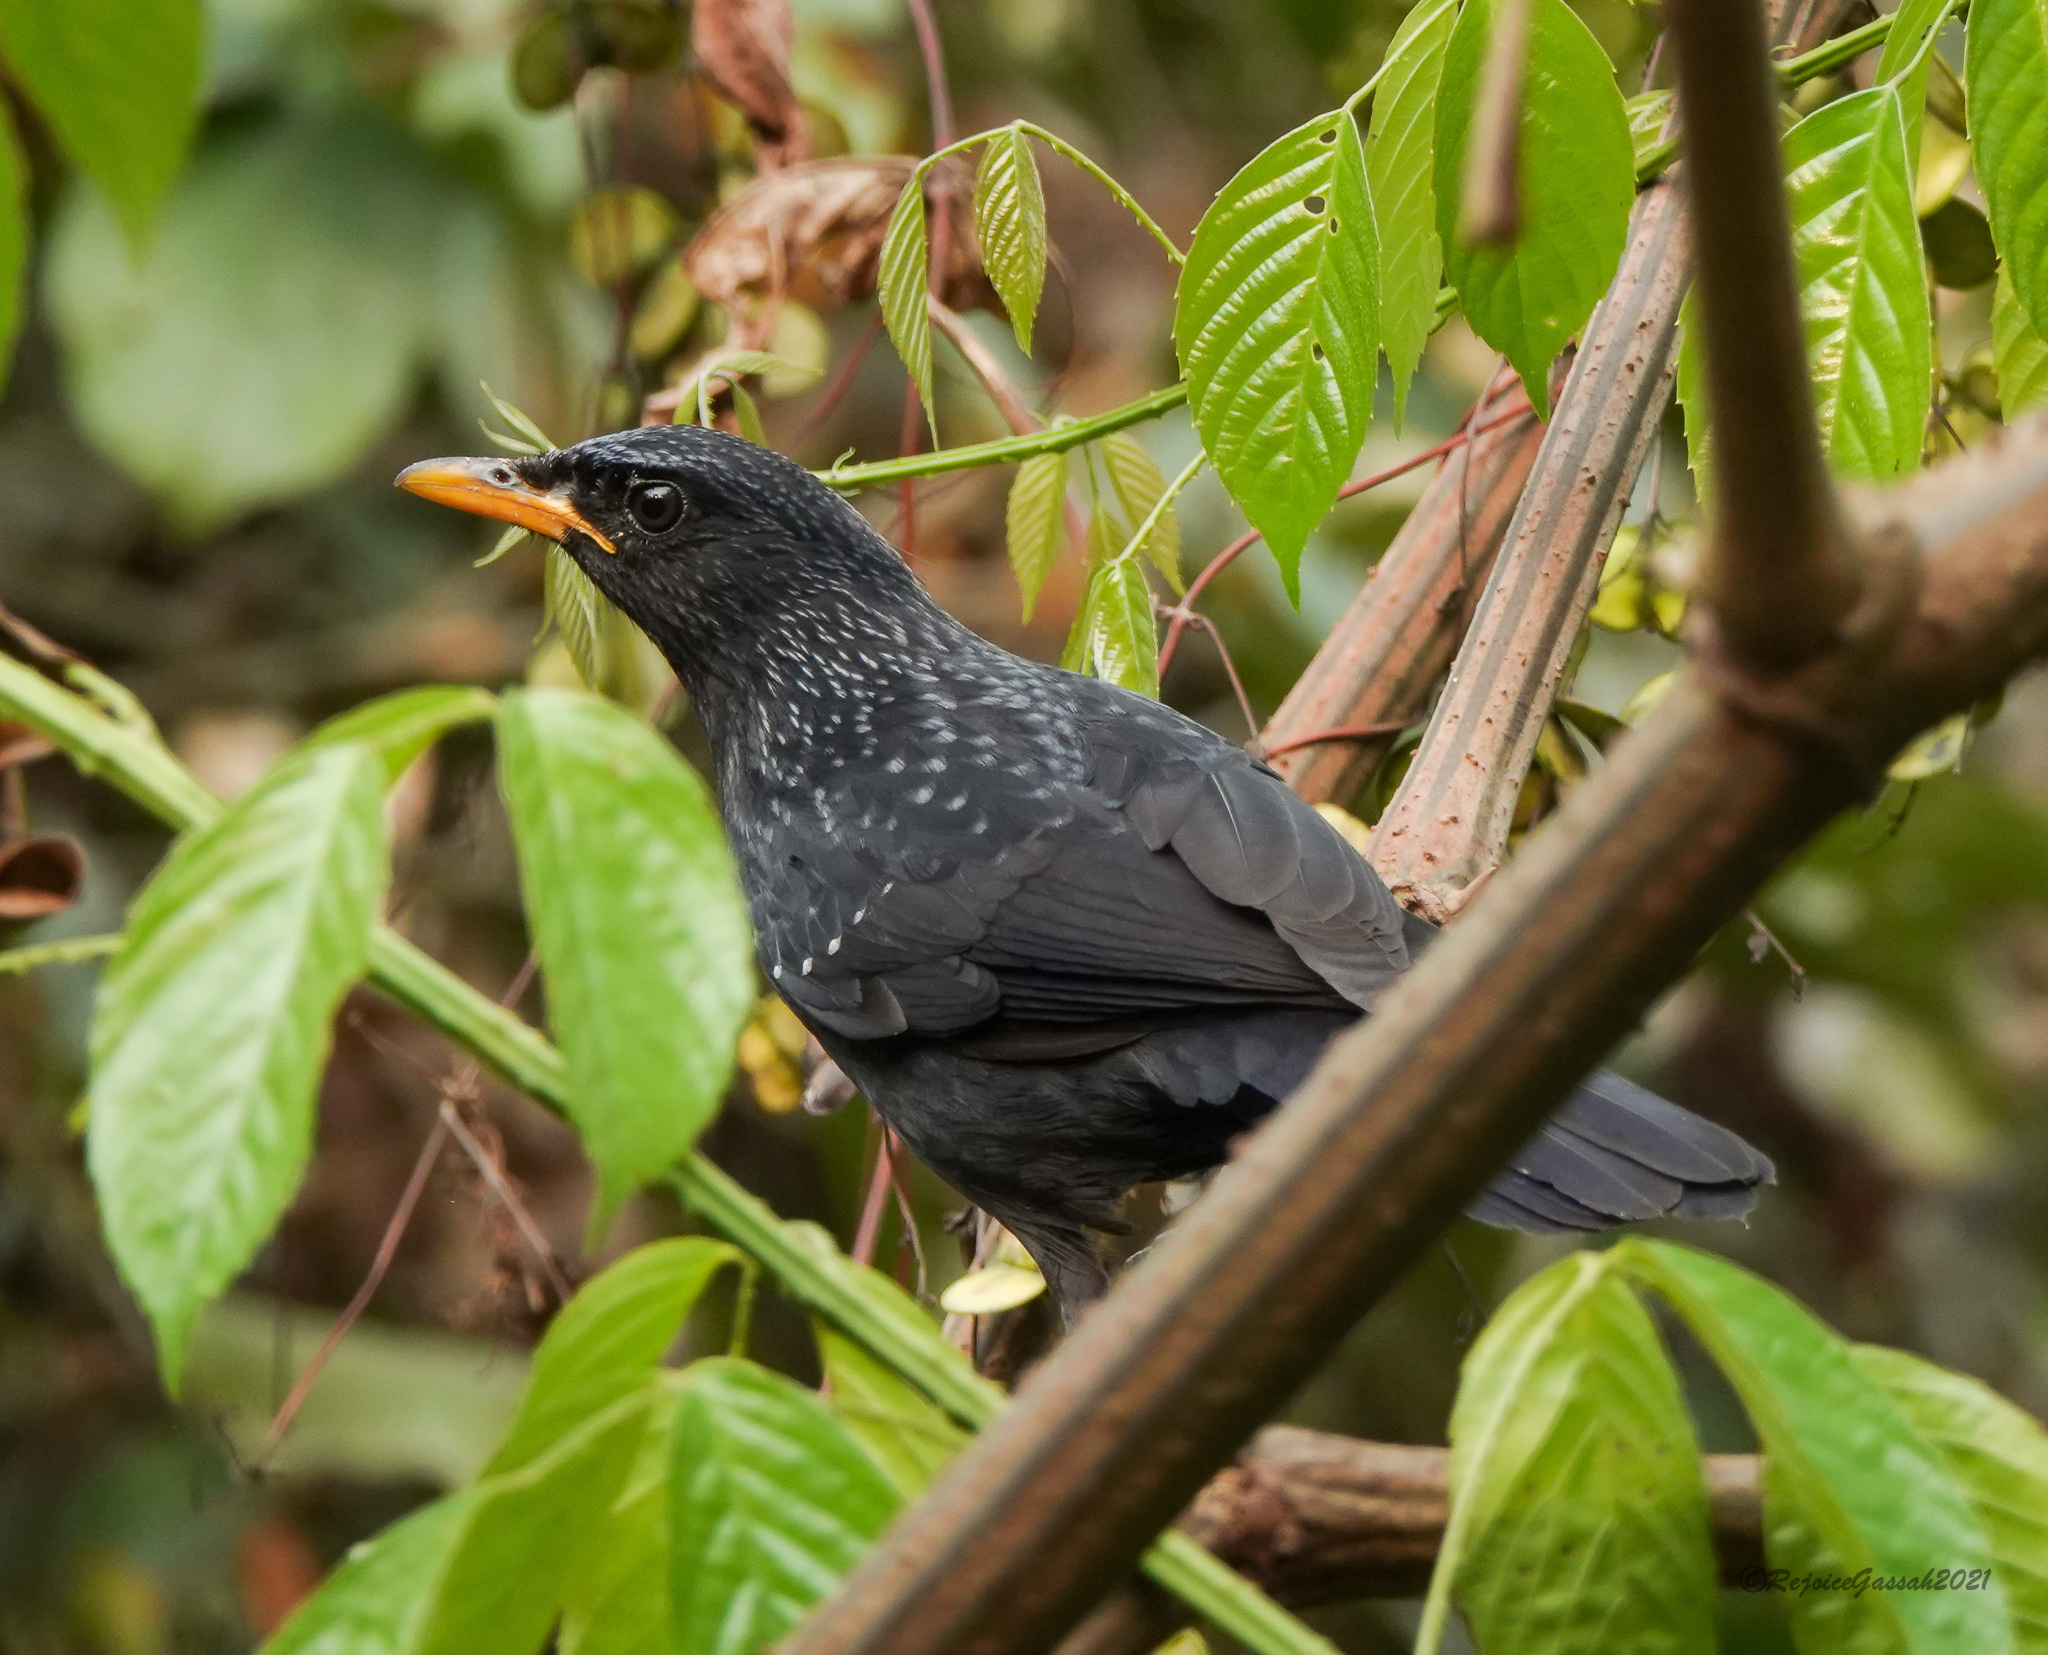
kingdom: Animalia
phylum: Chordata
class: Aves
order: Passeriformes
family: Muscicapidae
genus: Myophonus
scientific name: Myophonus caeruleus
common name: Blue whistling-thrush
